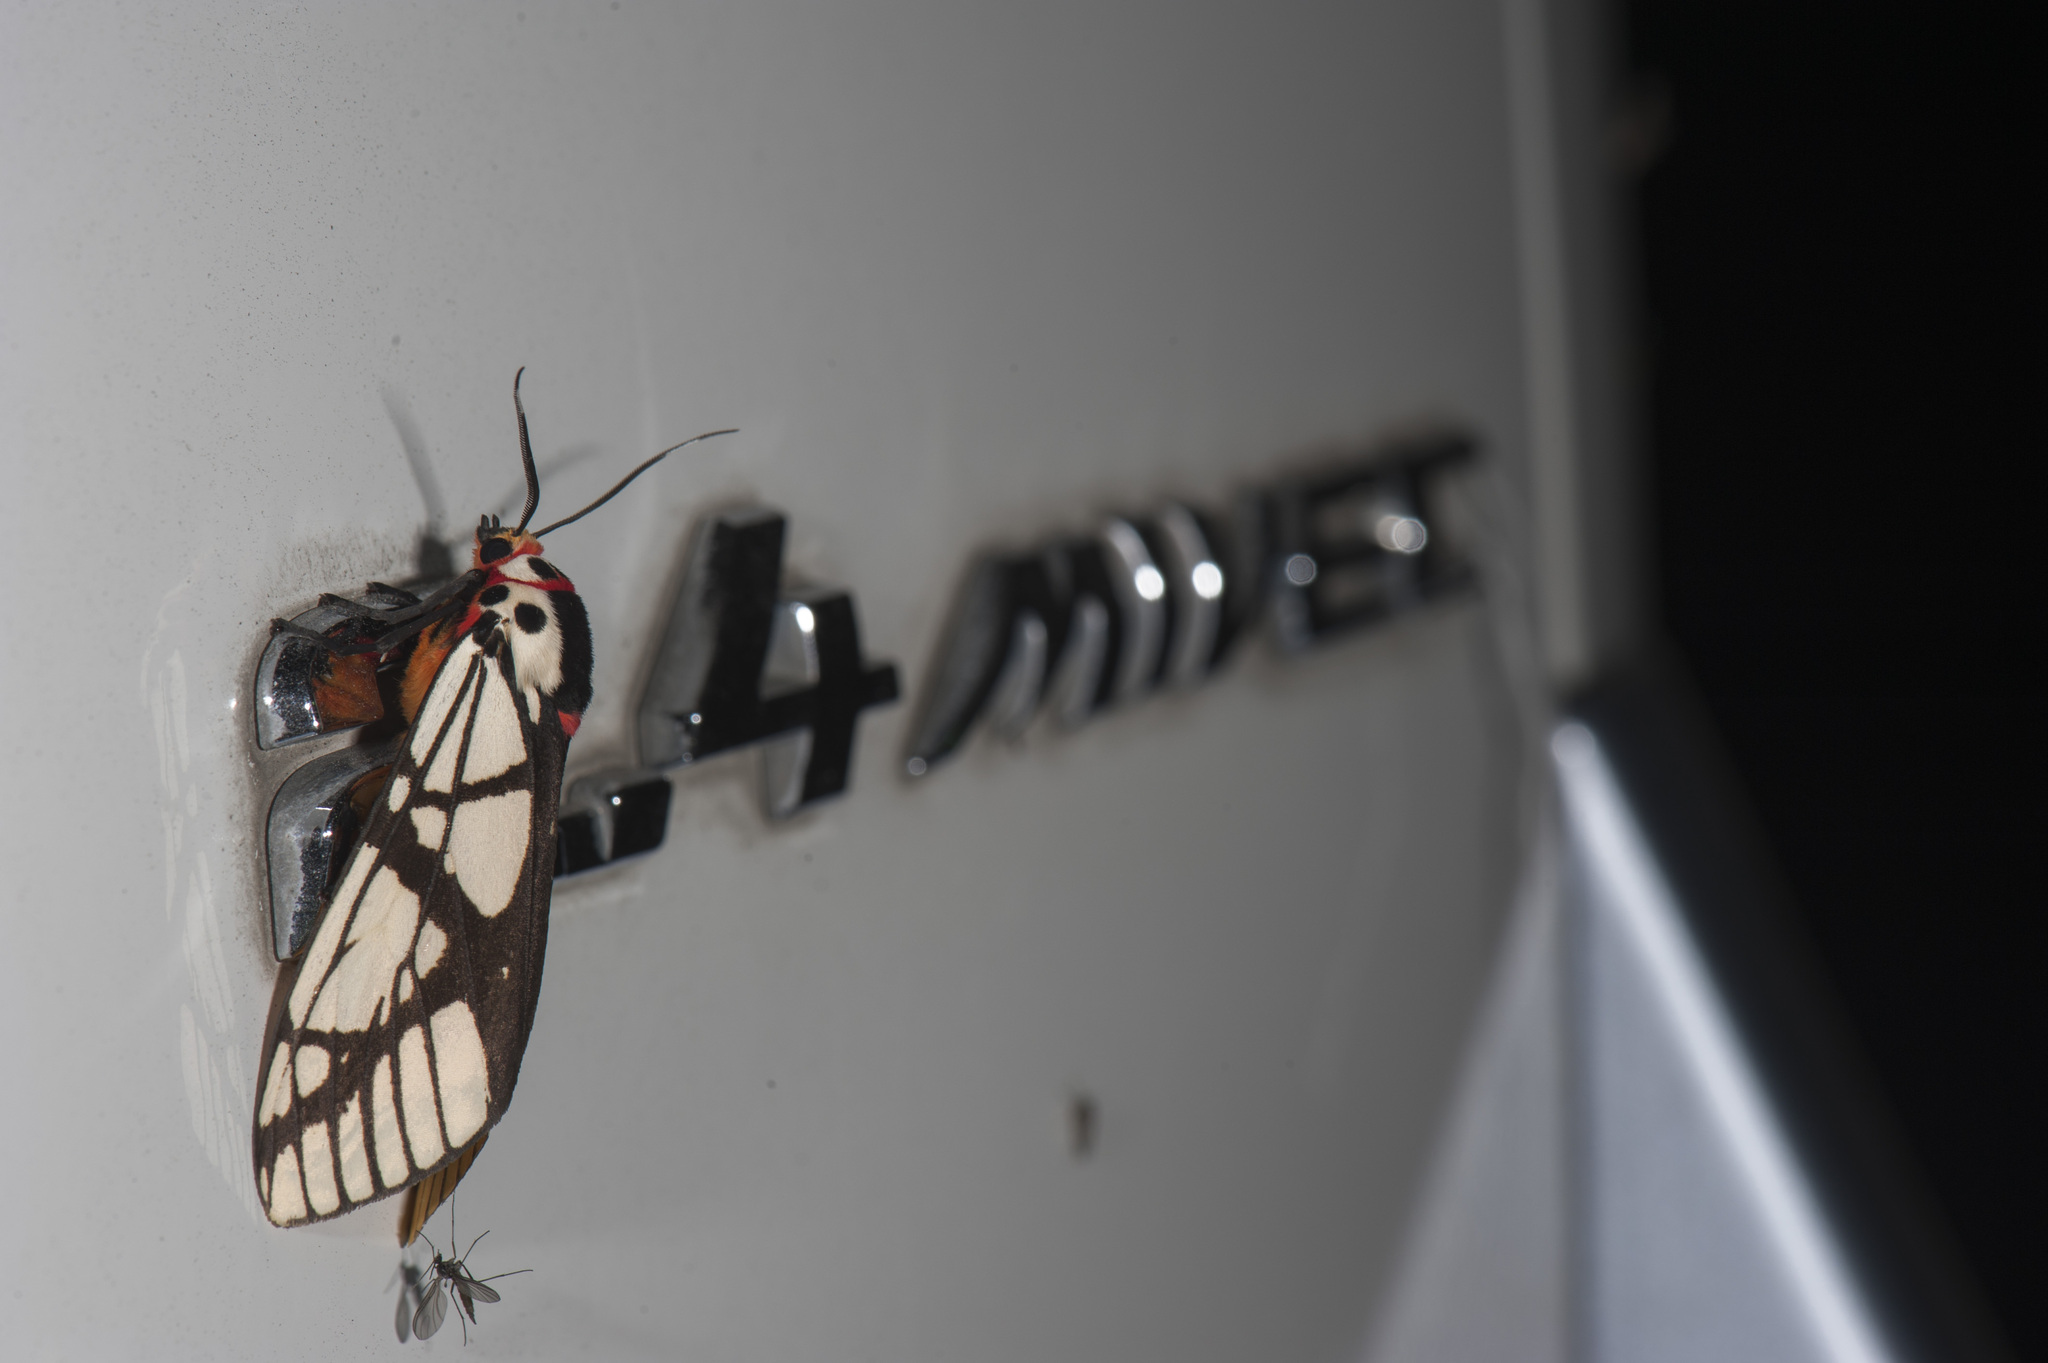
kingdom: Animalia
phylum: Arthropoda
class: Insecta
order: Lepidoptera
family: Erebidae
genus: Areas
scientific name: Areas galactina
